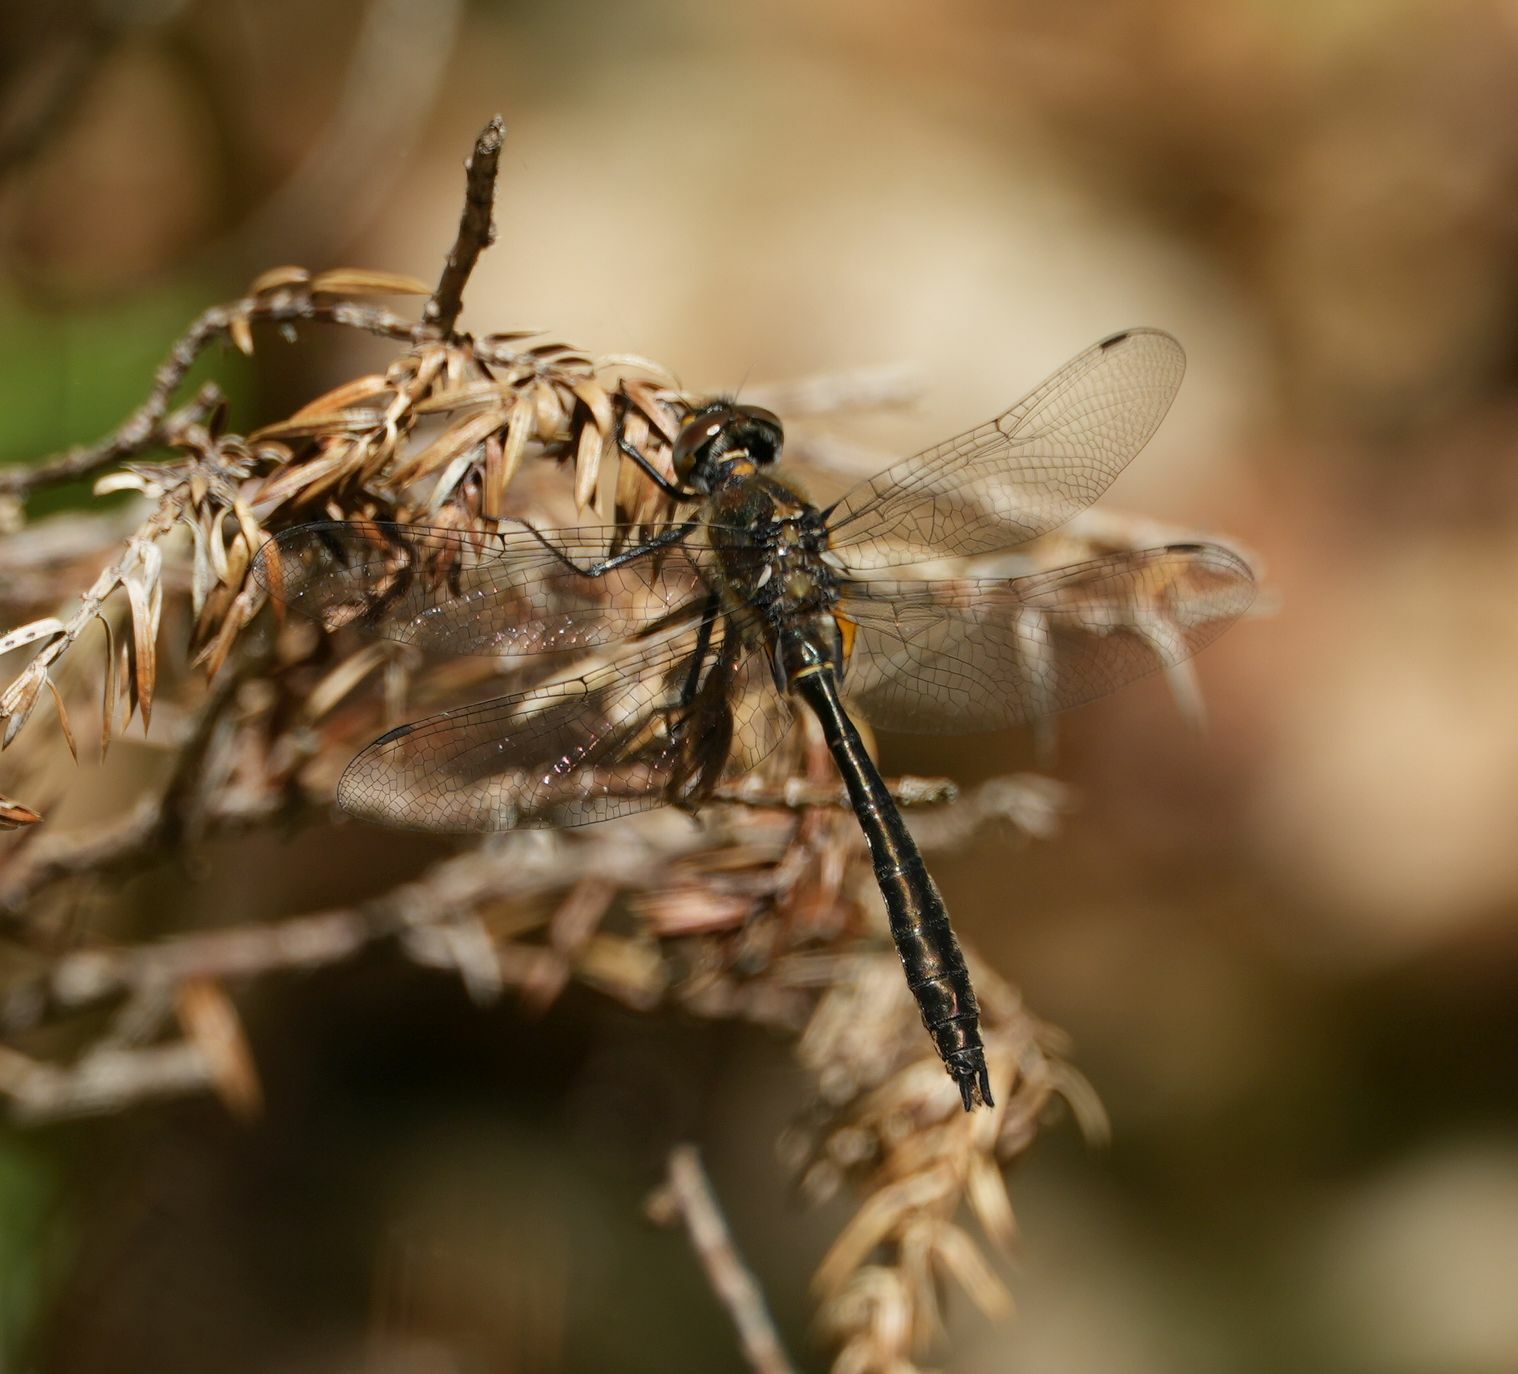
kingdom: Animalia
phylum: Arthropoda
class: Insecta
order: Odonata
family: Corduliidae
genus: Cordulia
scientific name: Cordulia shurtleffii
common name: American emerald
